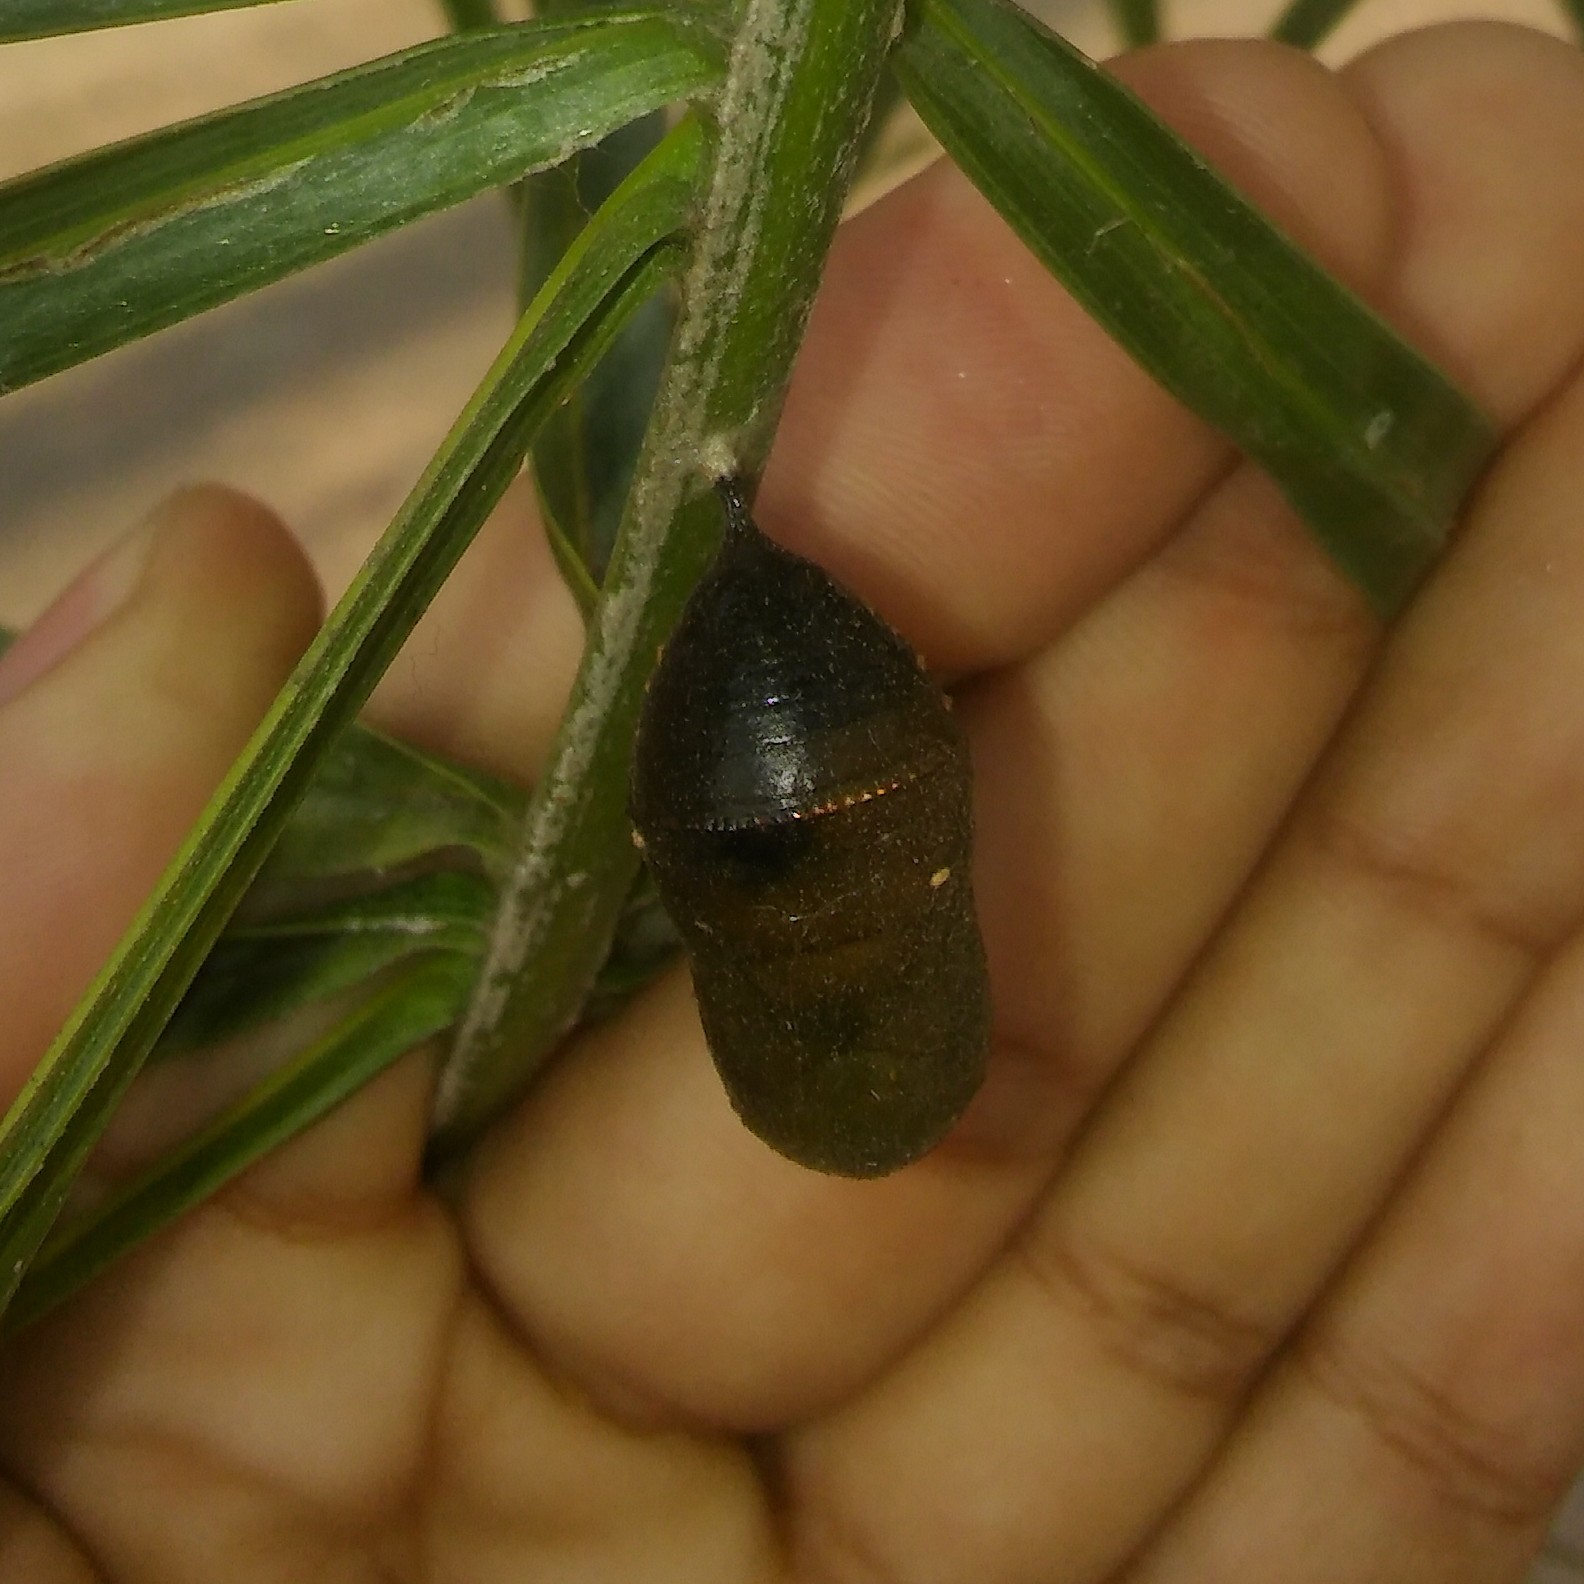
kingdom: Animalia
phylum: Arthropoda
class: Insecta
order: Lepidoptera
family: Nymphalidae
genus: Danaus
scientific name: Danaus erippus
